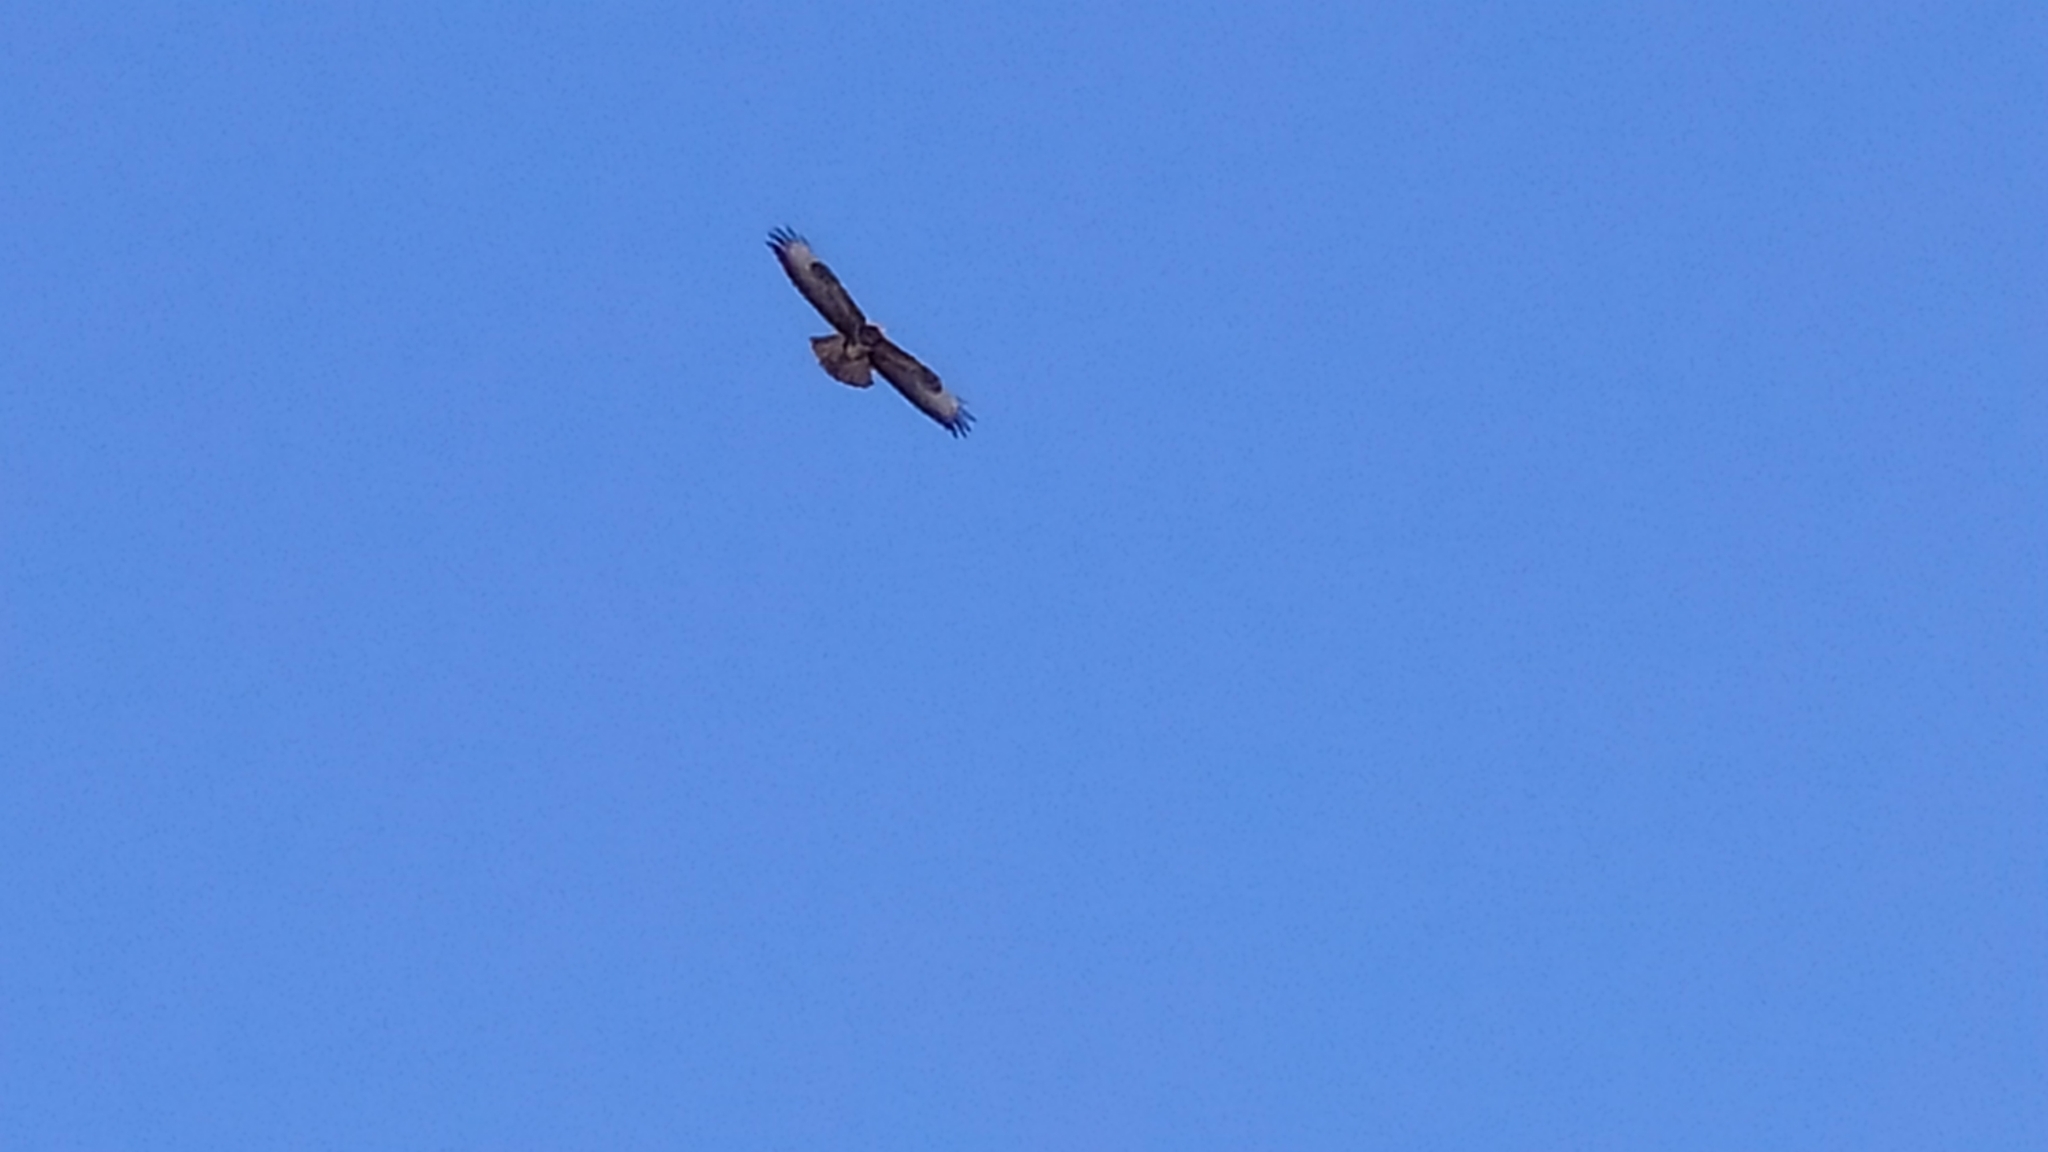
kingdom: Animalia
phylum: Chordata
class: Aves
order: Accipitriformes
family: Accipitridae
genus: Buteo
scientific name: Buteo buteo
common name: Common buzzard
